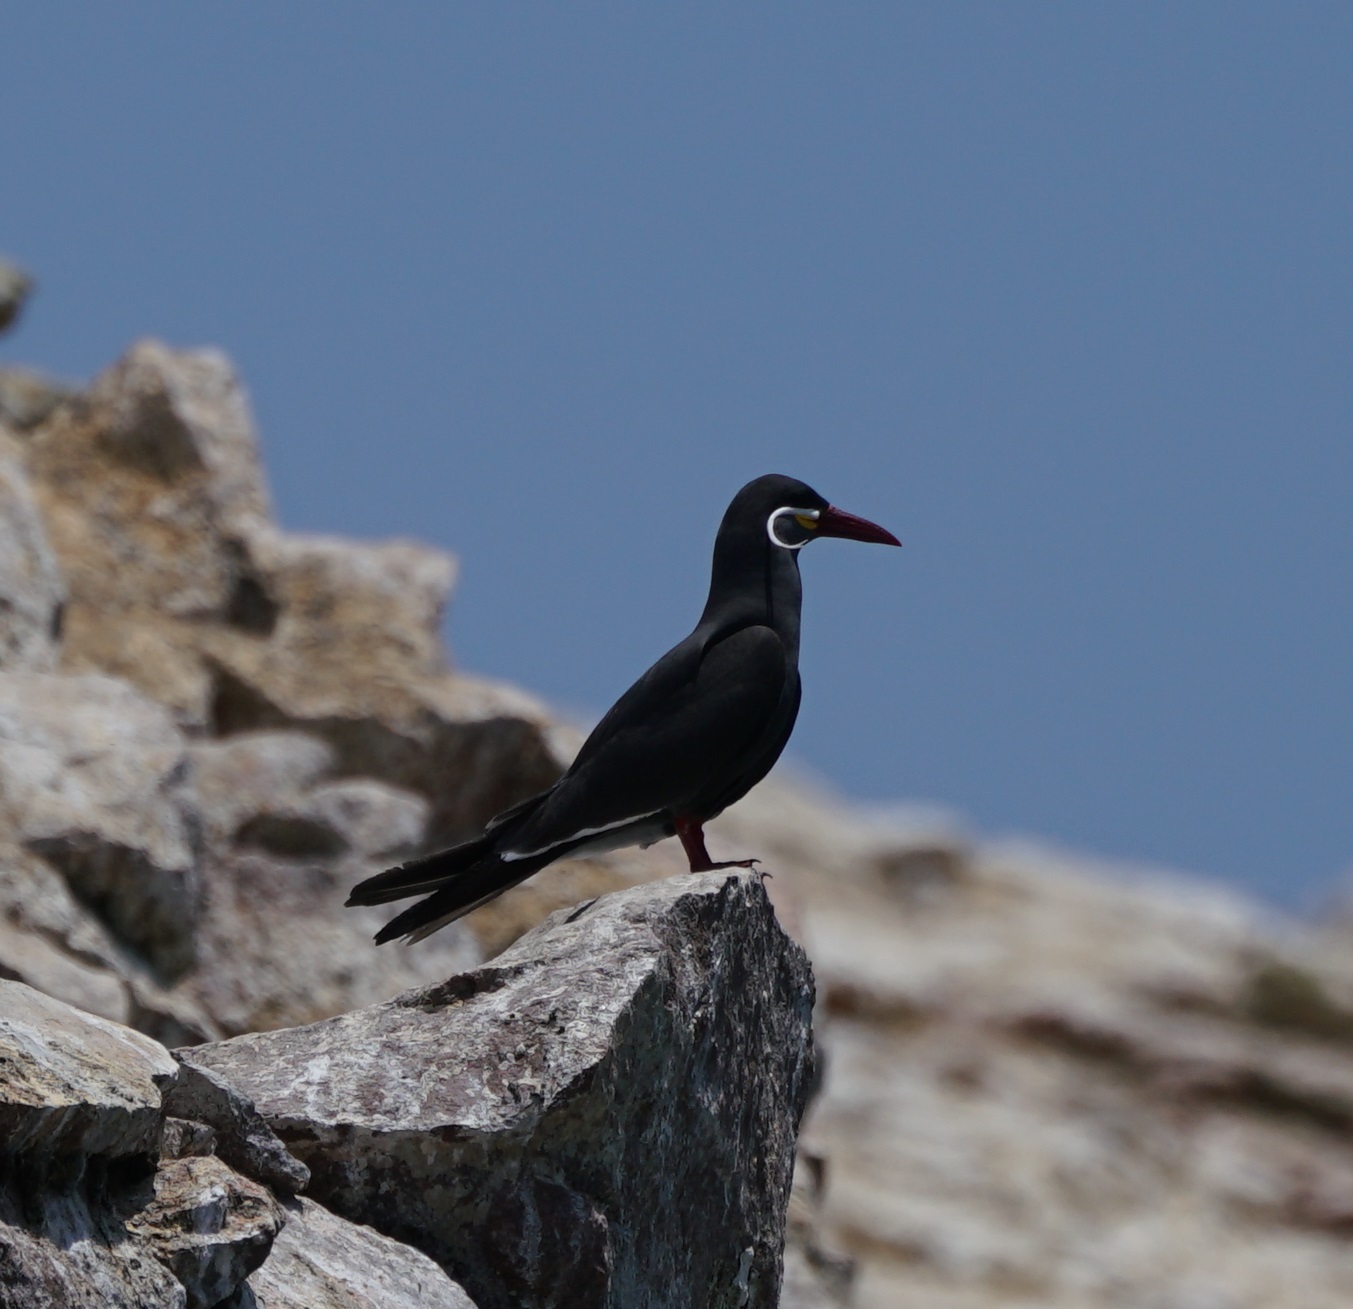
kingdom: Animalia
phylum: Chordata
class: Aves
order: Charadriiformes
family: Laridae
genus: Larosterna
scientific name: Larosterna inca
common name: Inca tern
